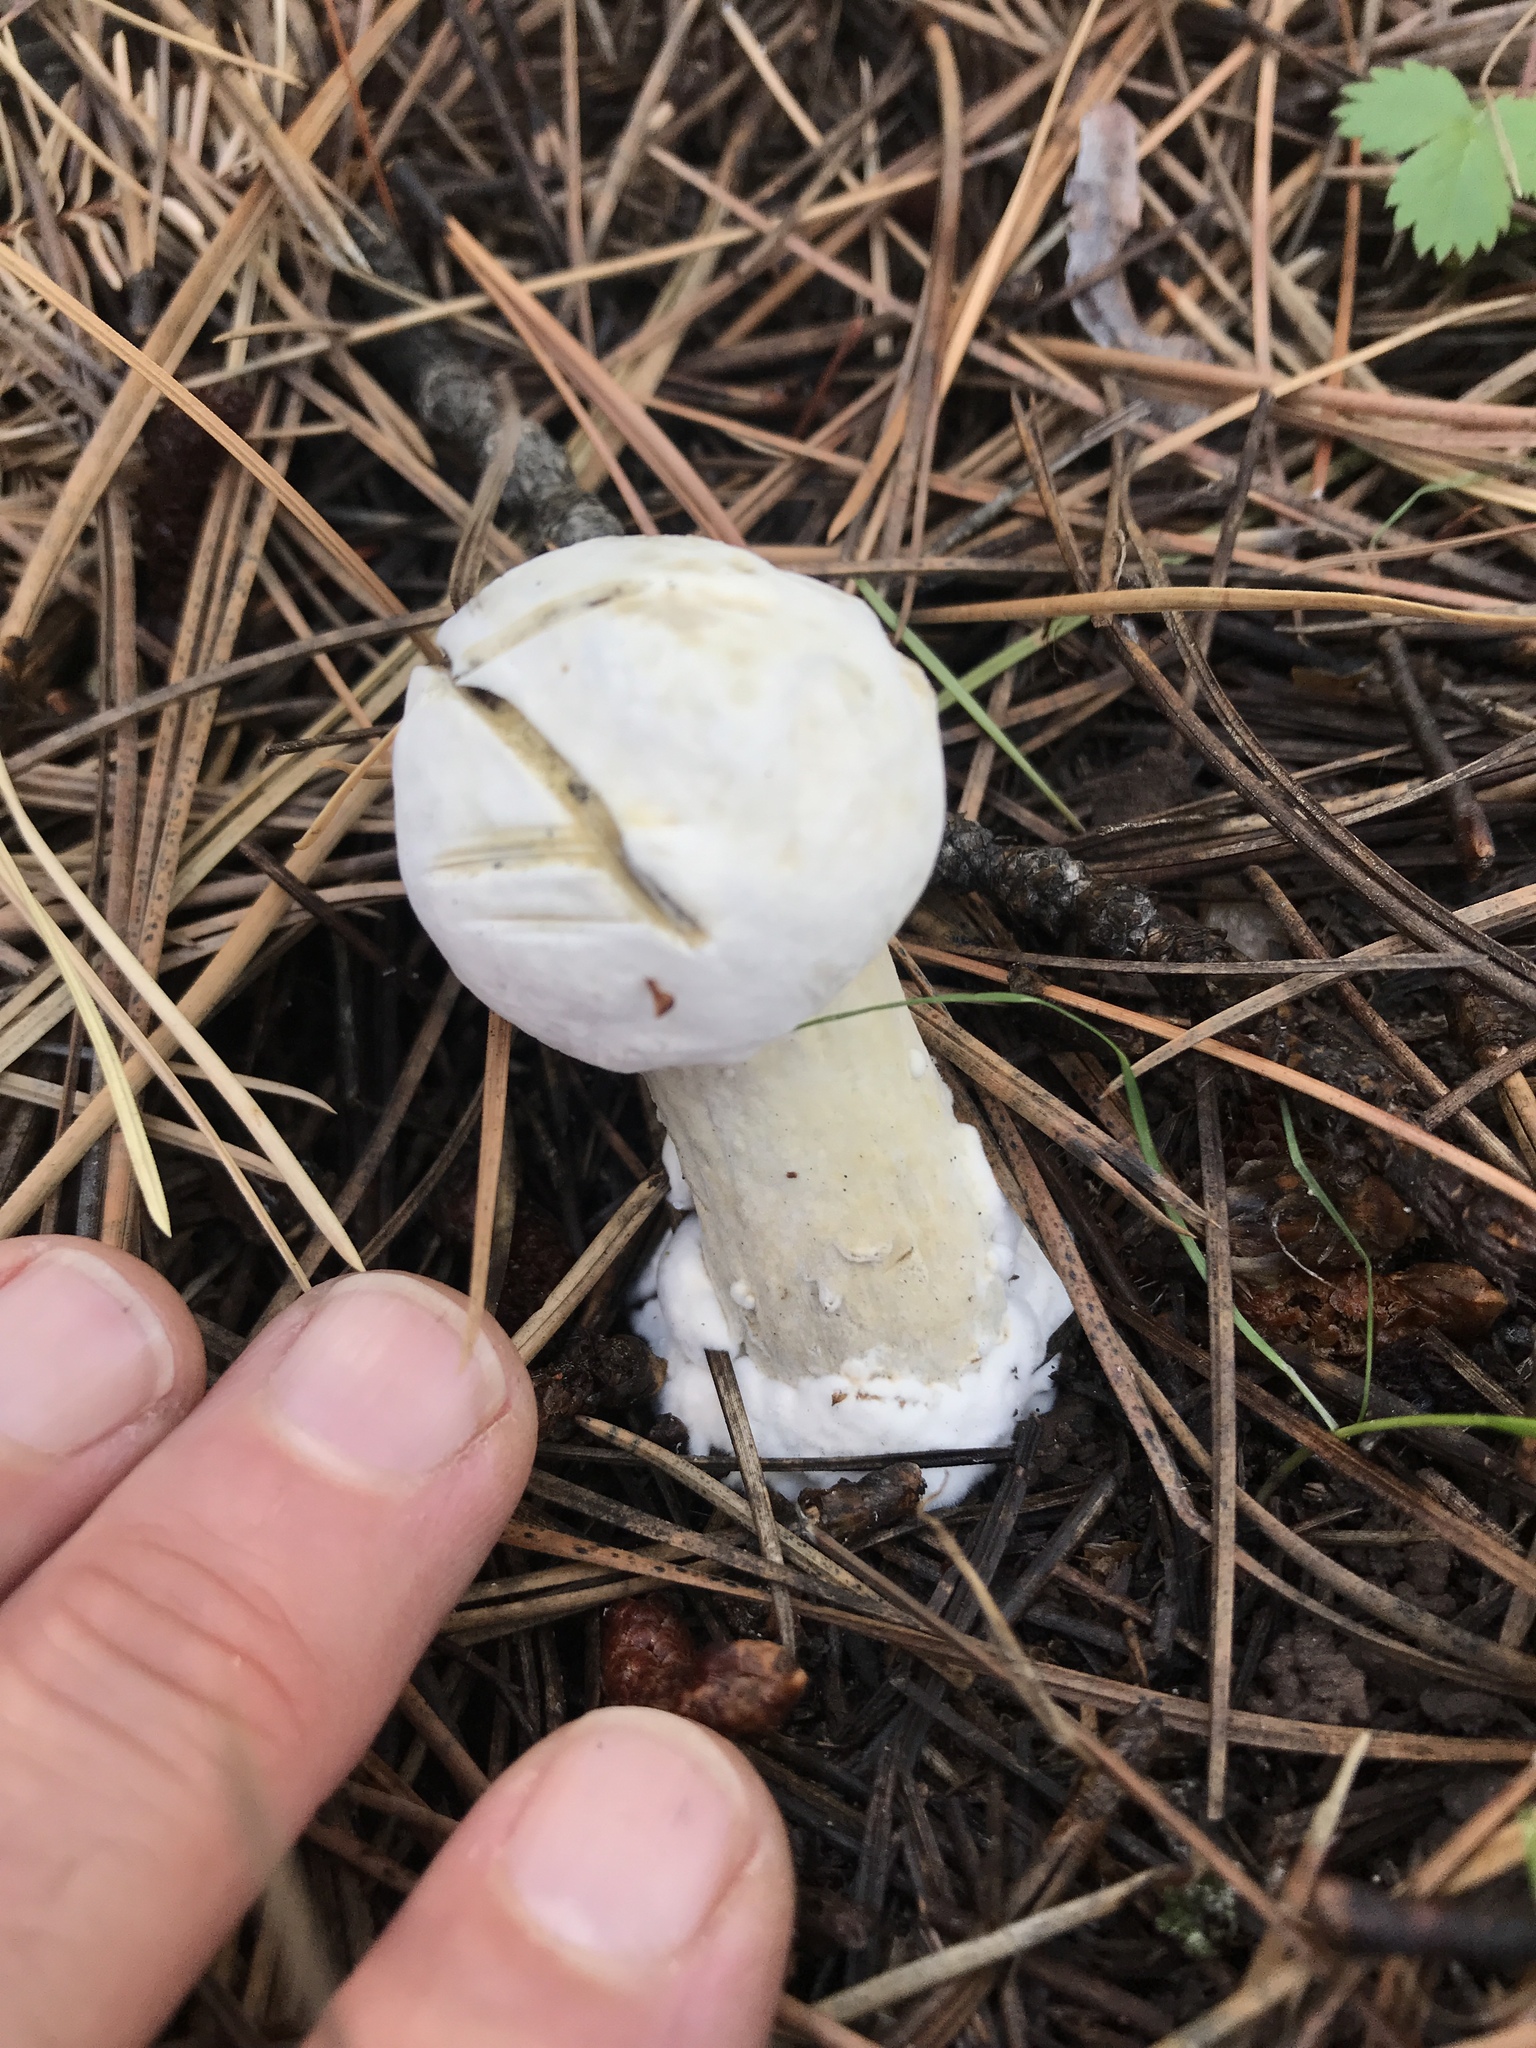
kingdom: Fungi
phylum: Ascomycota
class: Sordariomycetes
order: Hypocreales
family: Hypocreaceae
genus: Hypomyces
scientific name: Hypomyces hyalinus
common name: Amanita mold
